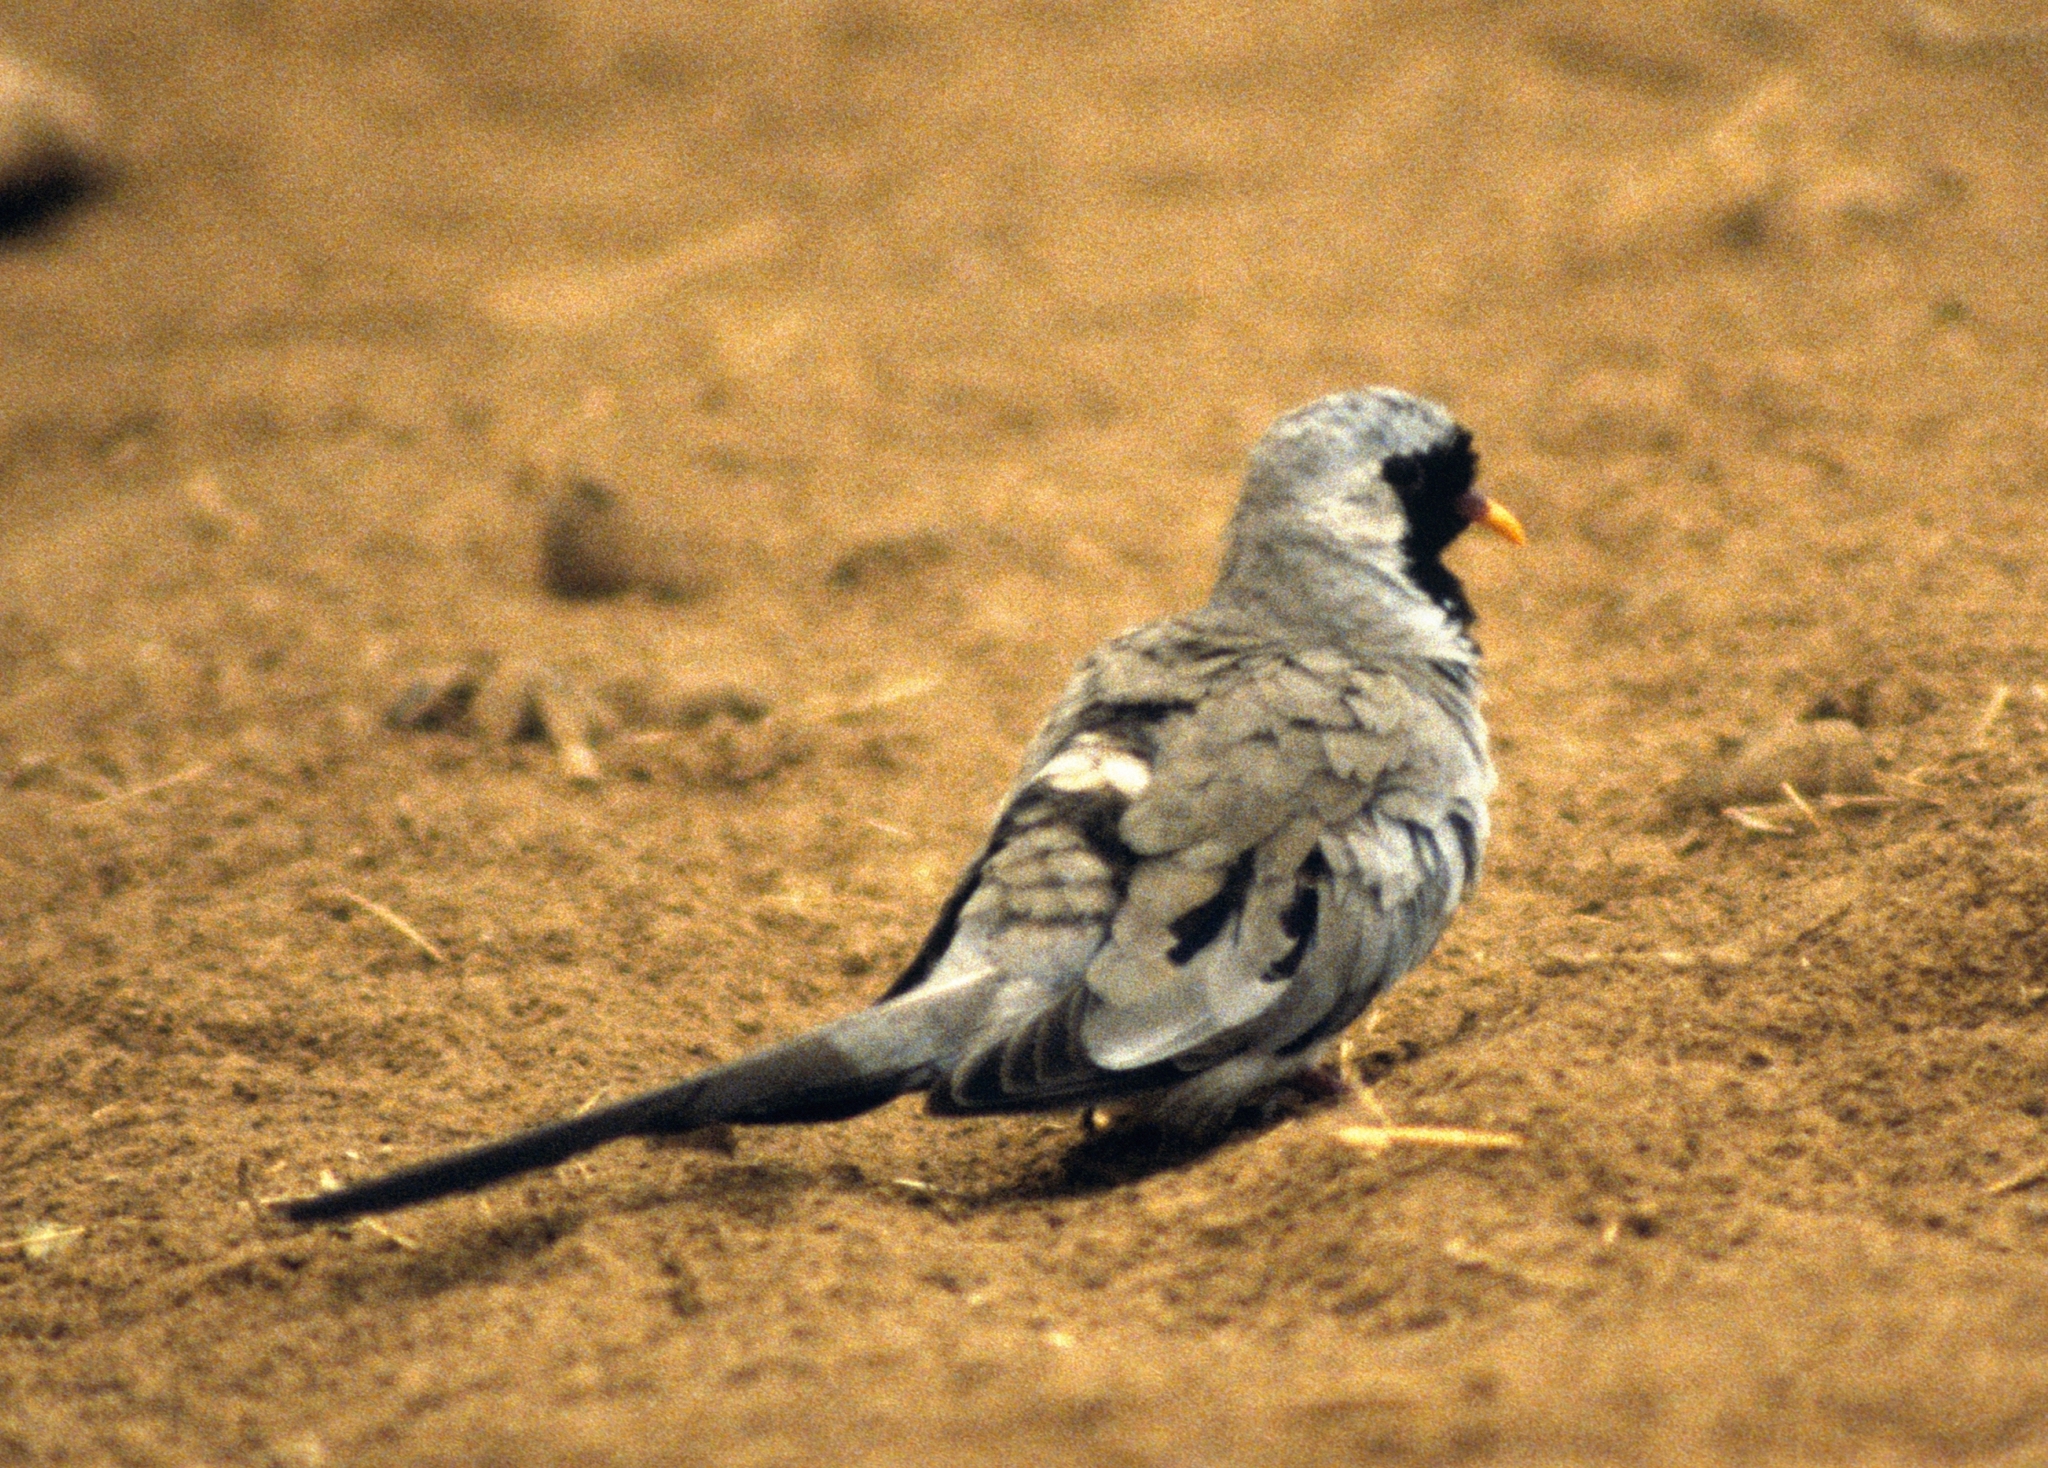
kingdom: Animalia
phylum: Chordata
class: Aves
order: Columbiformes
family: Columbidae
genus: Oena
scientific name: Oena capensis
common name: Namaqua dove
